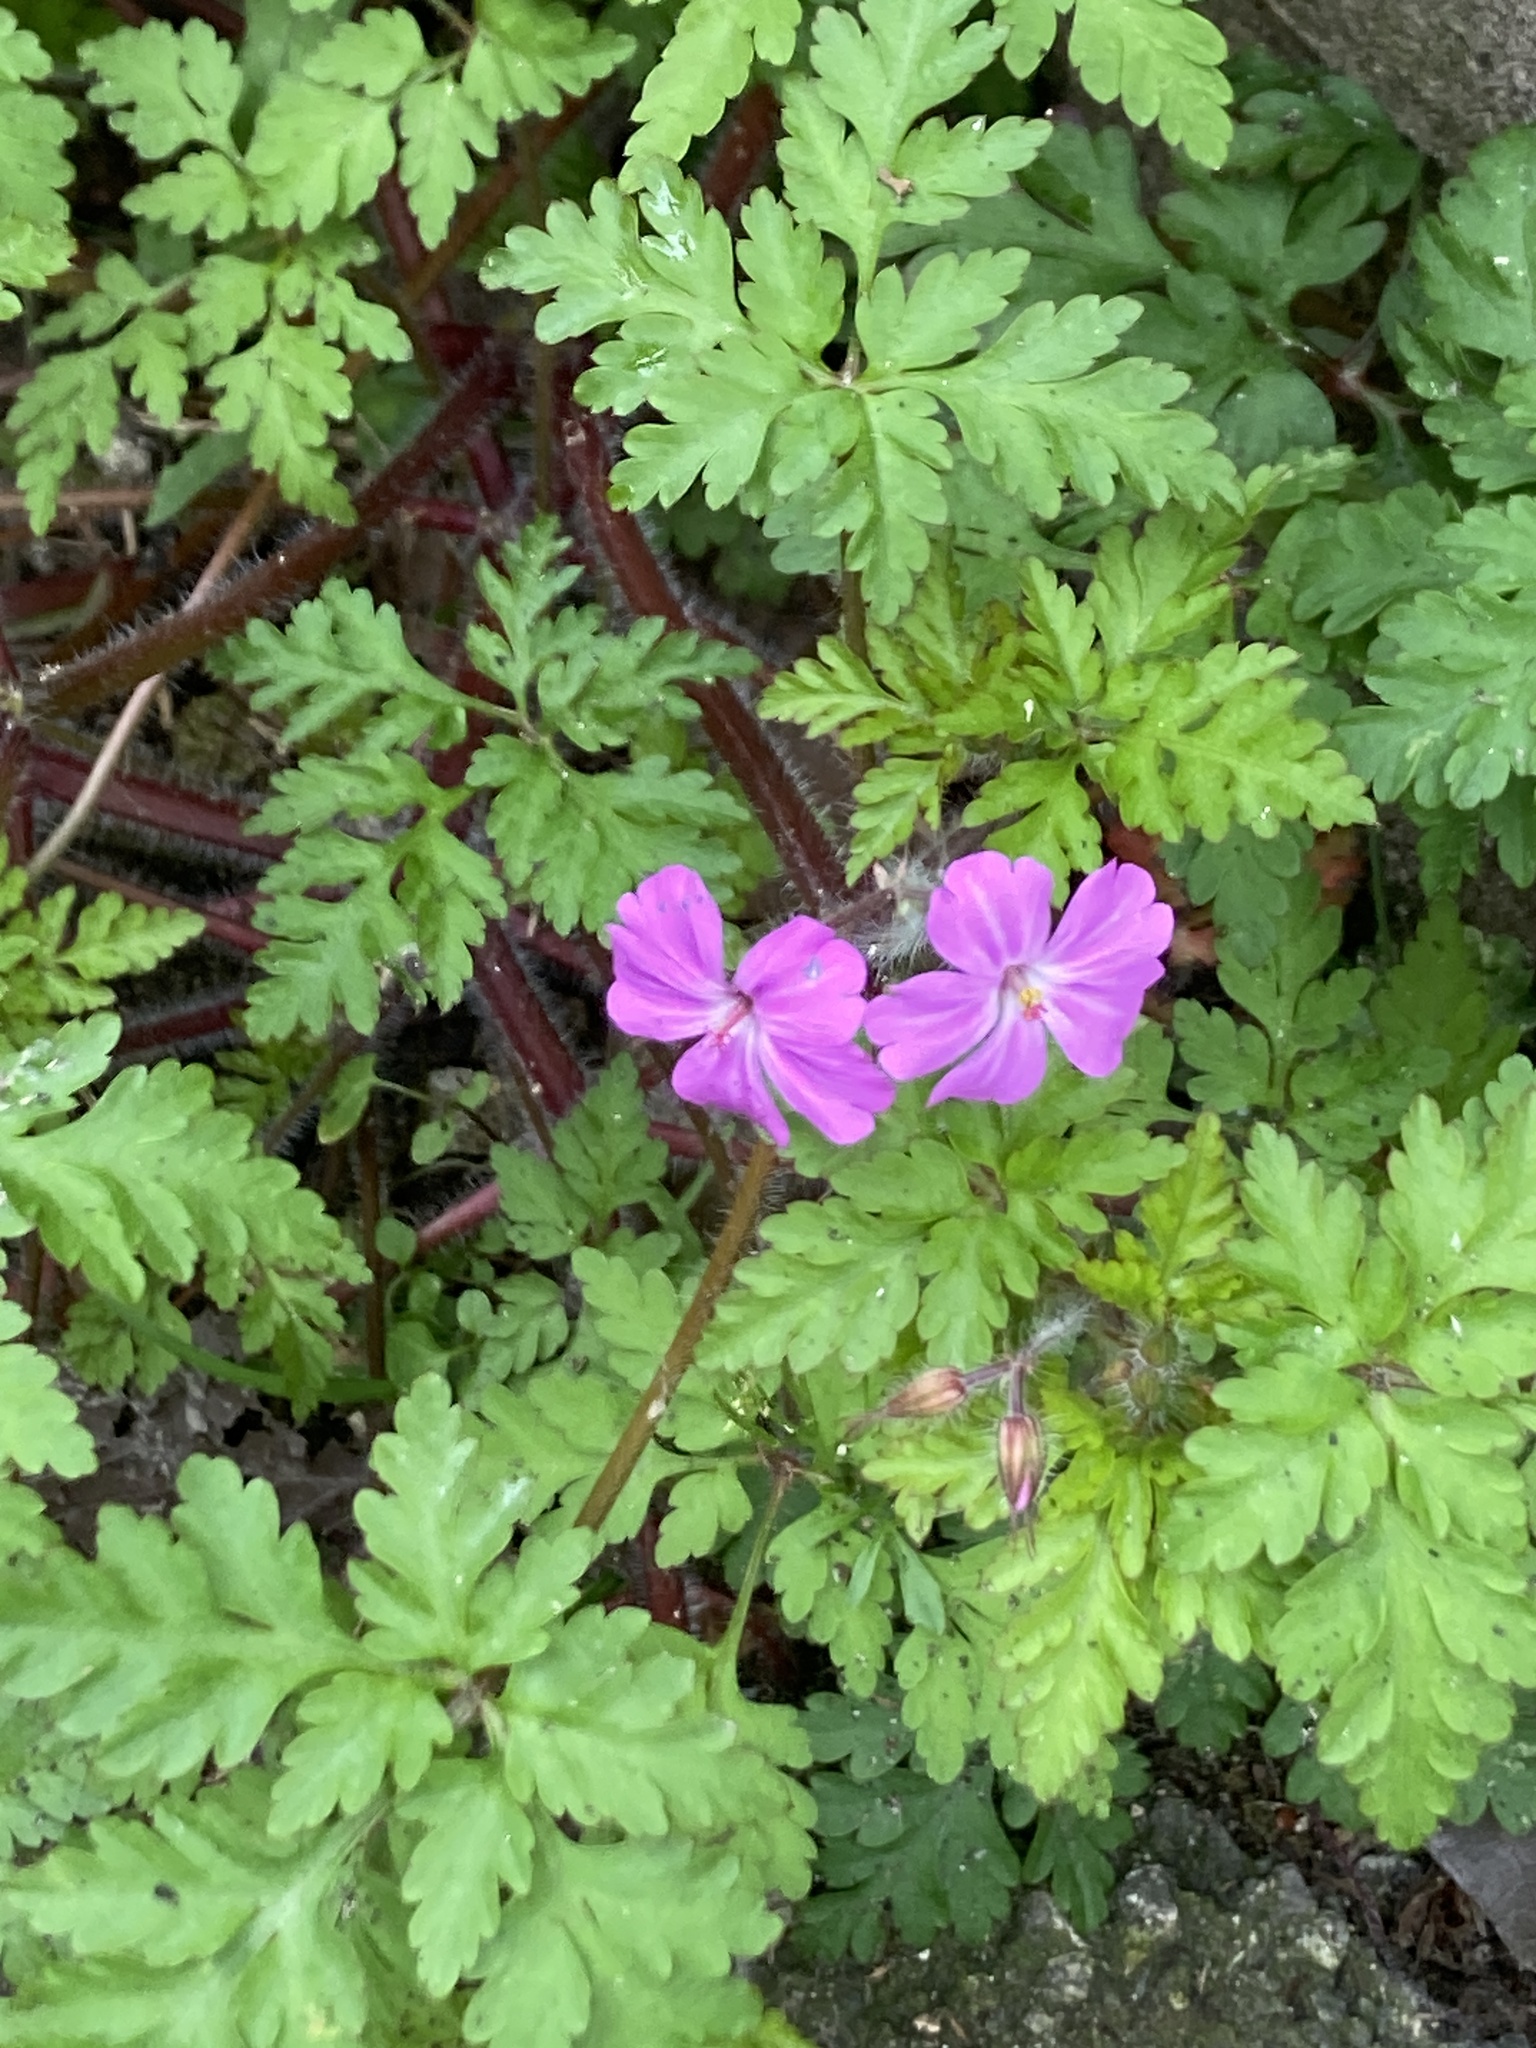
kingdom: Plantae
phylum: Tracheophyta
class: Magnoliopsida
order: Geraniales
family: Geraniaceae
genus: Geranium
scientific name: Geranium robertianum
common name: Herb-robert
